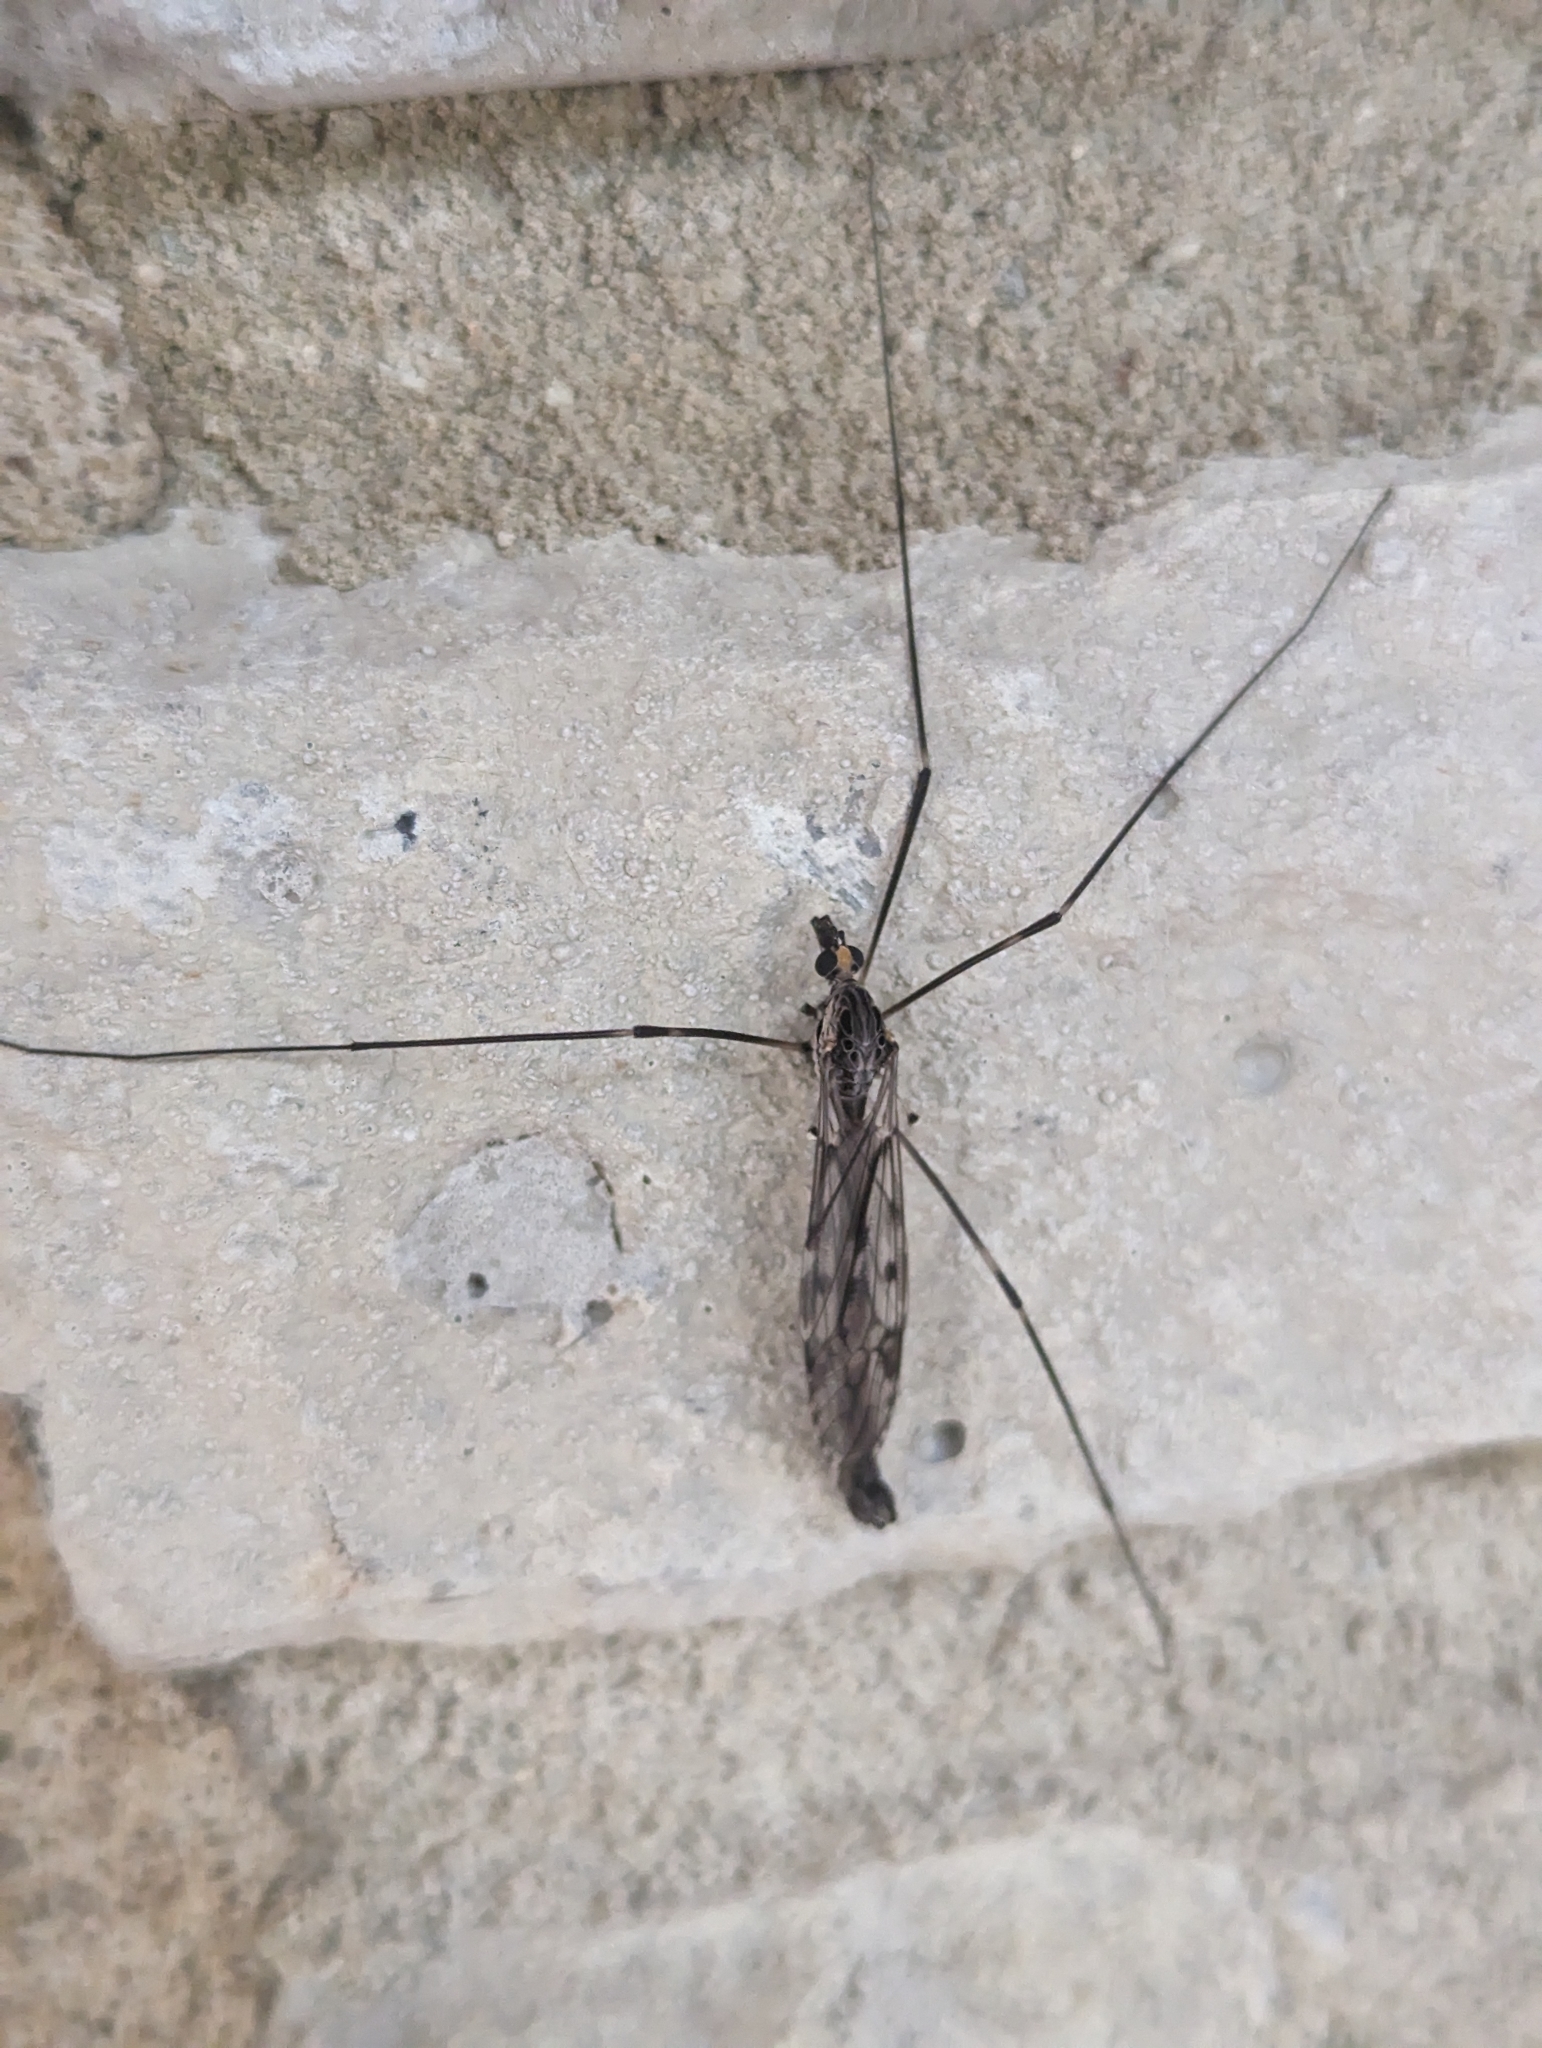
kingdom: Animalia
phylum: Arthropoda
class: Insecta
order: Diptera
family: Tipulidae
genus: Tipula
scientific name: Tipula abdominalis
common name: Giant crane fly
